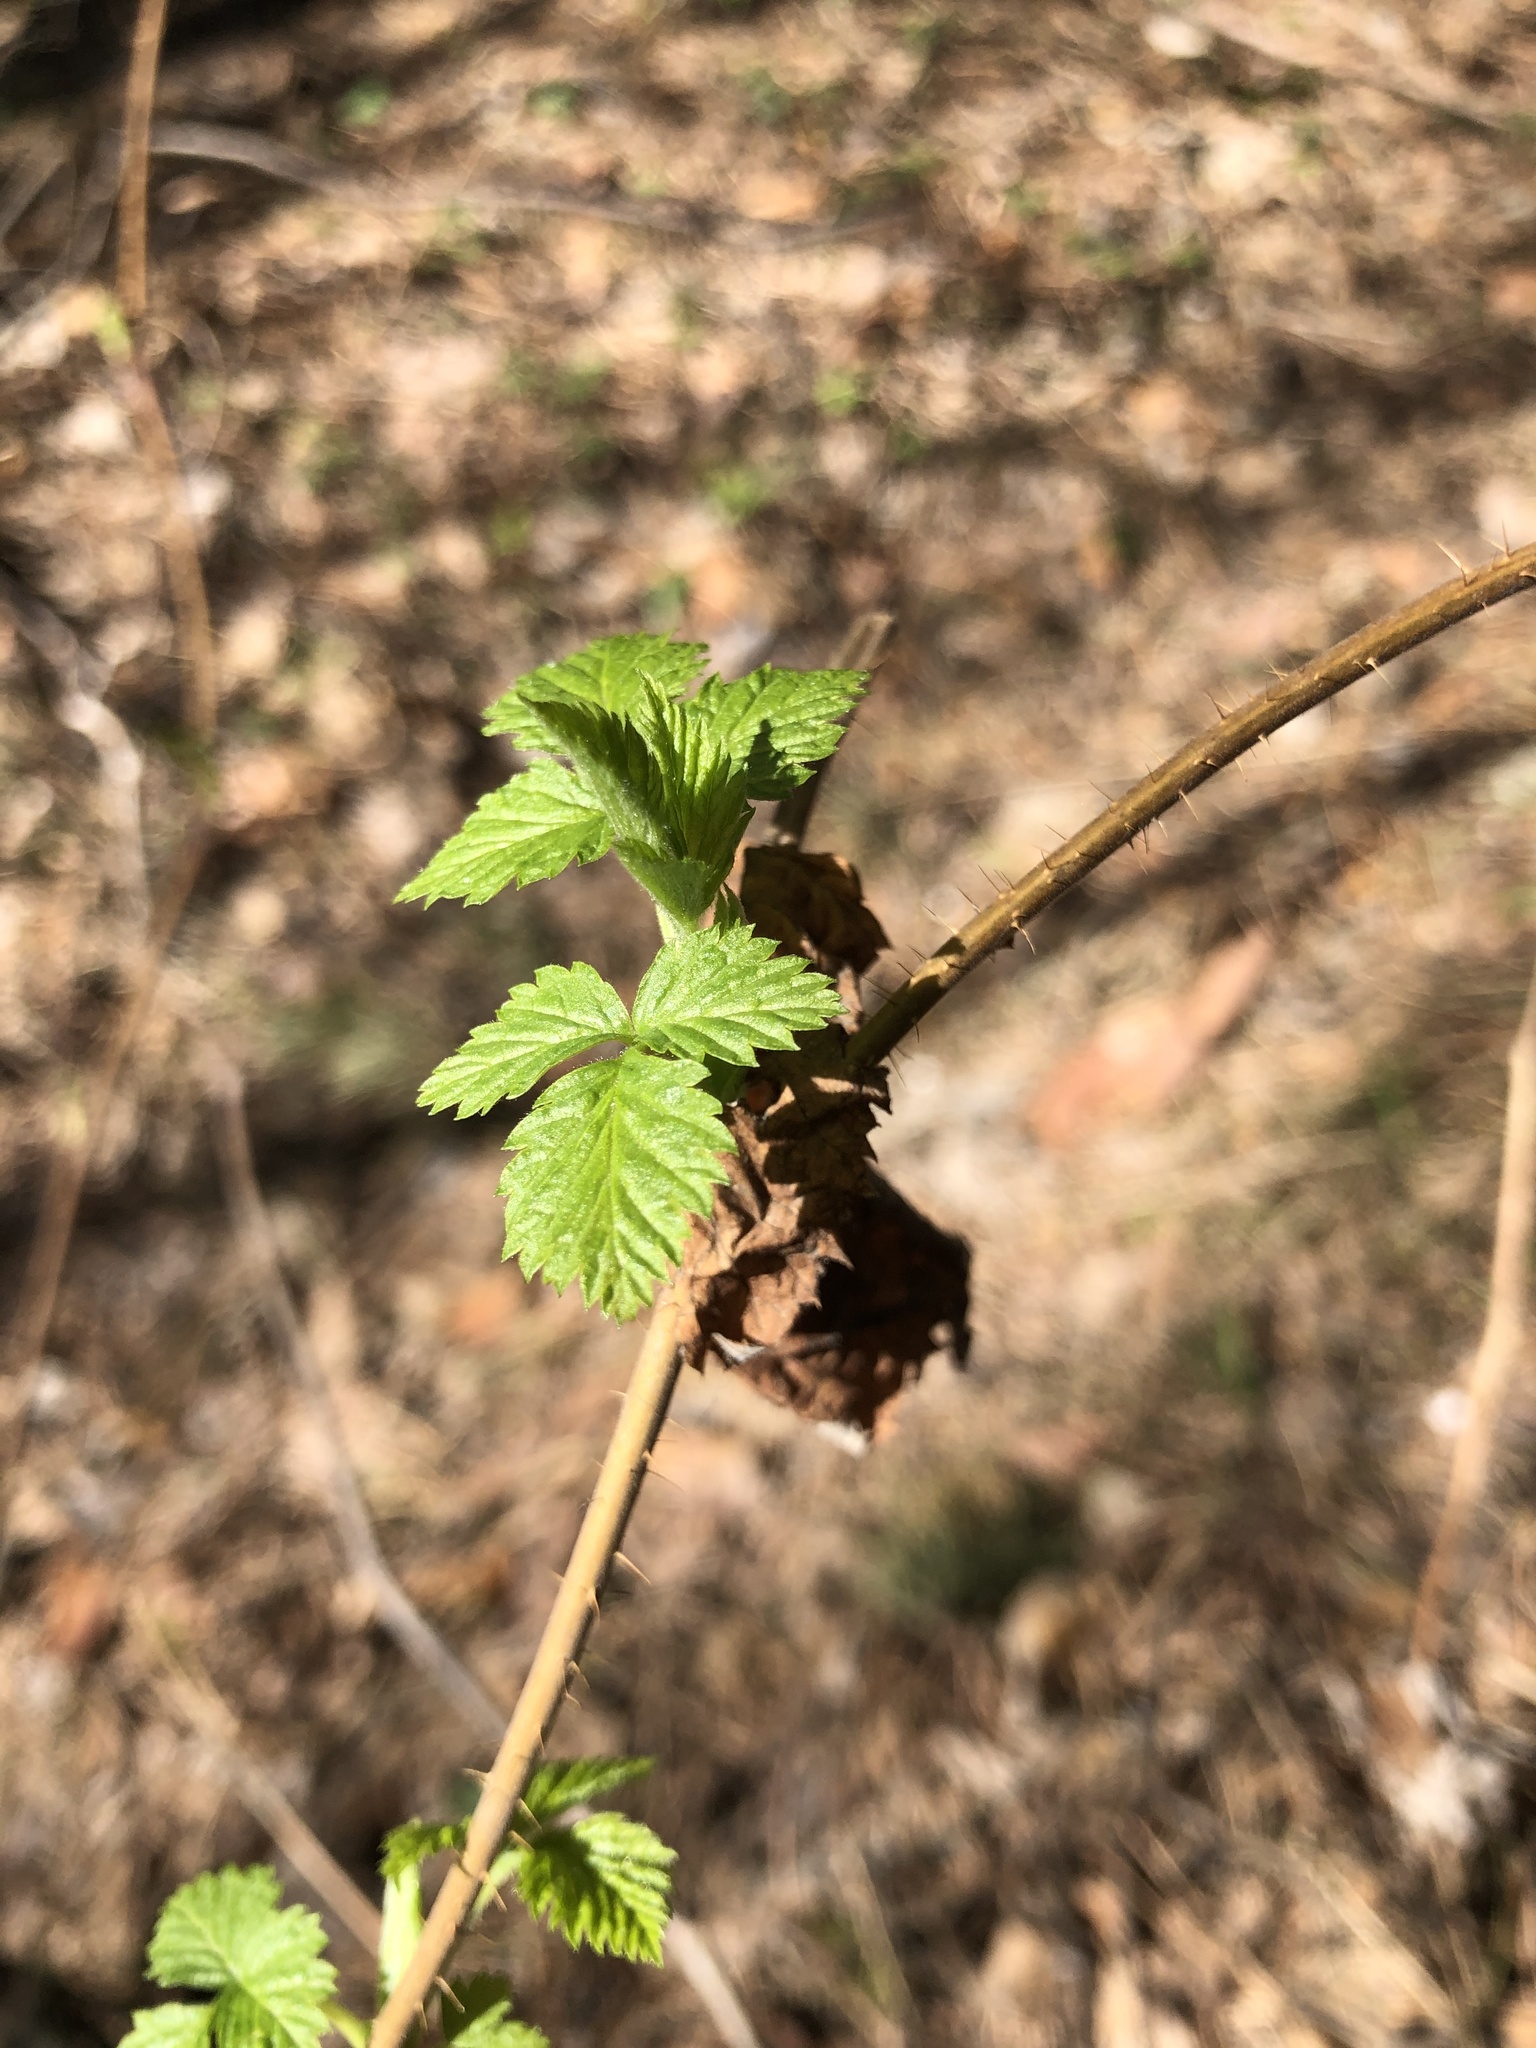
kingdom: Plantae
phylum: Tracheophyta
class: Magnoliopsida
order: Rosales
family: Rosaceae
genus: Rubus
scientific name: Rubus idaeus
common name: Raspberry
